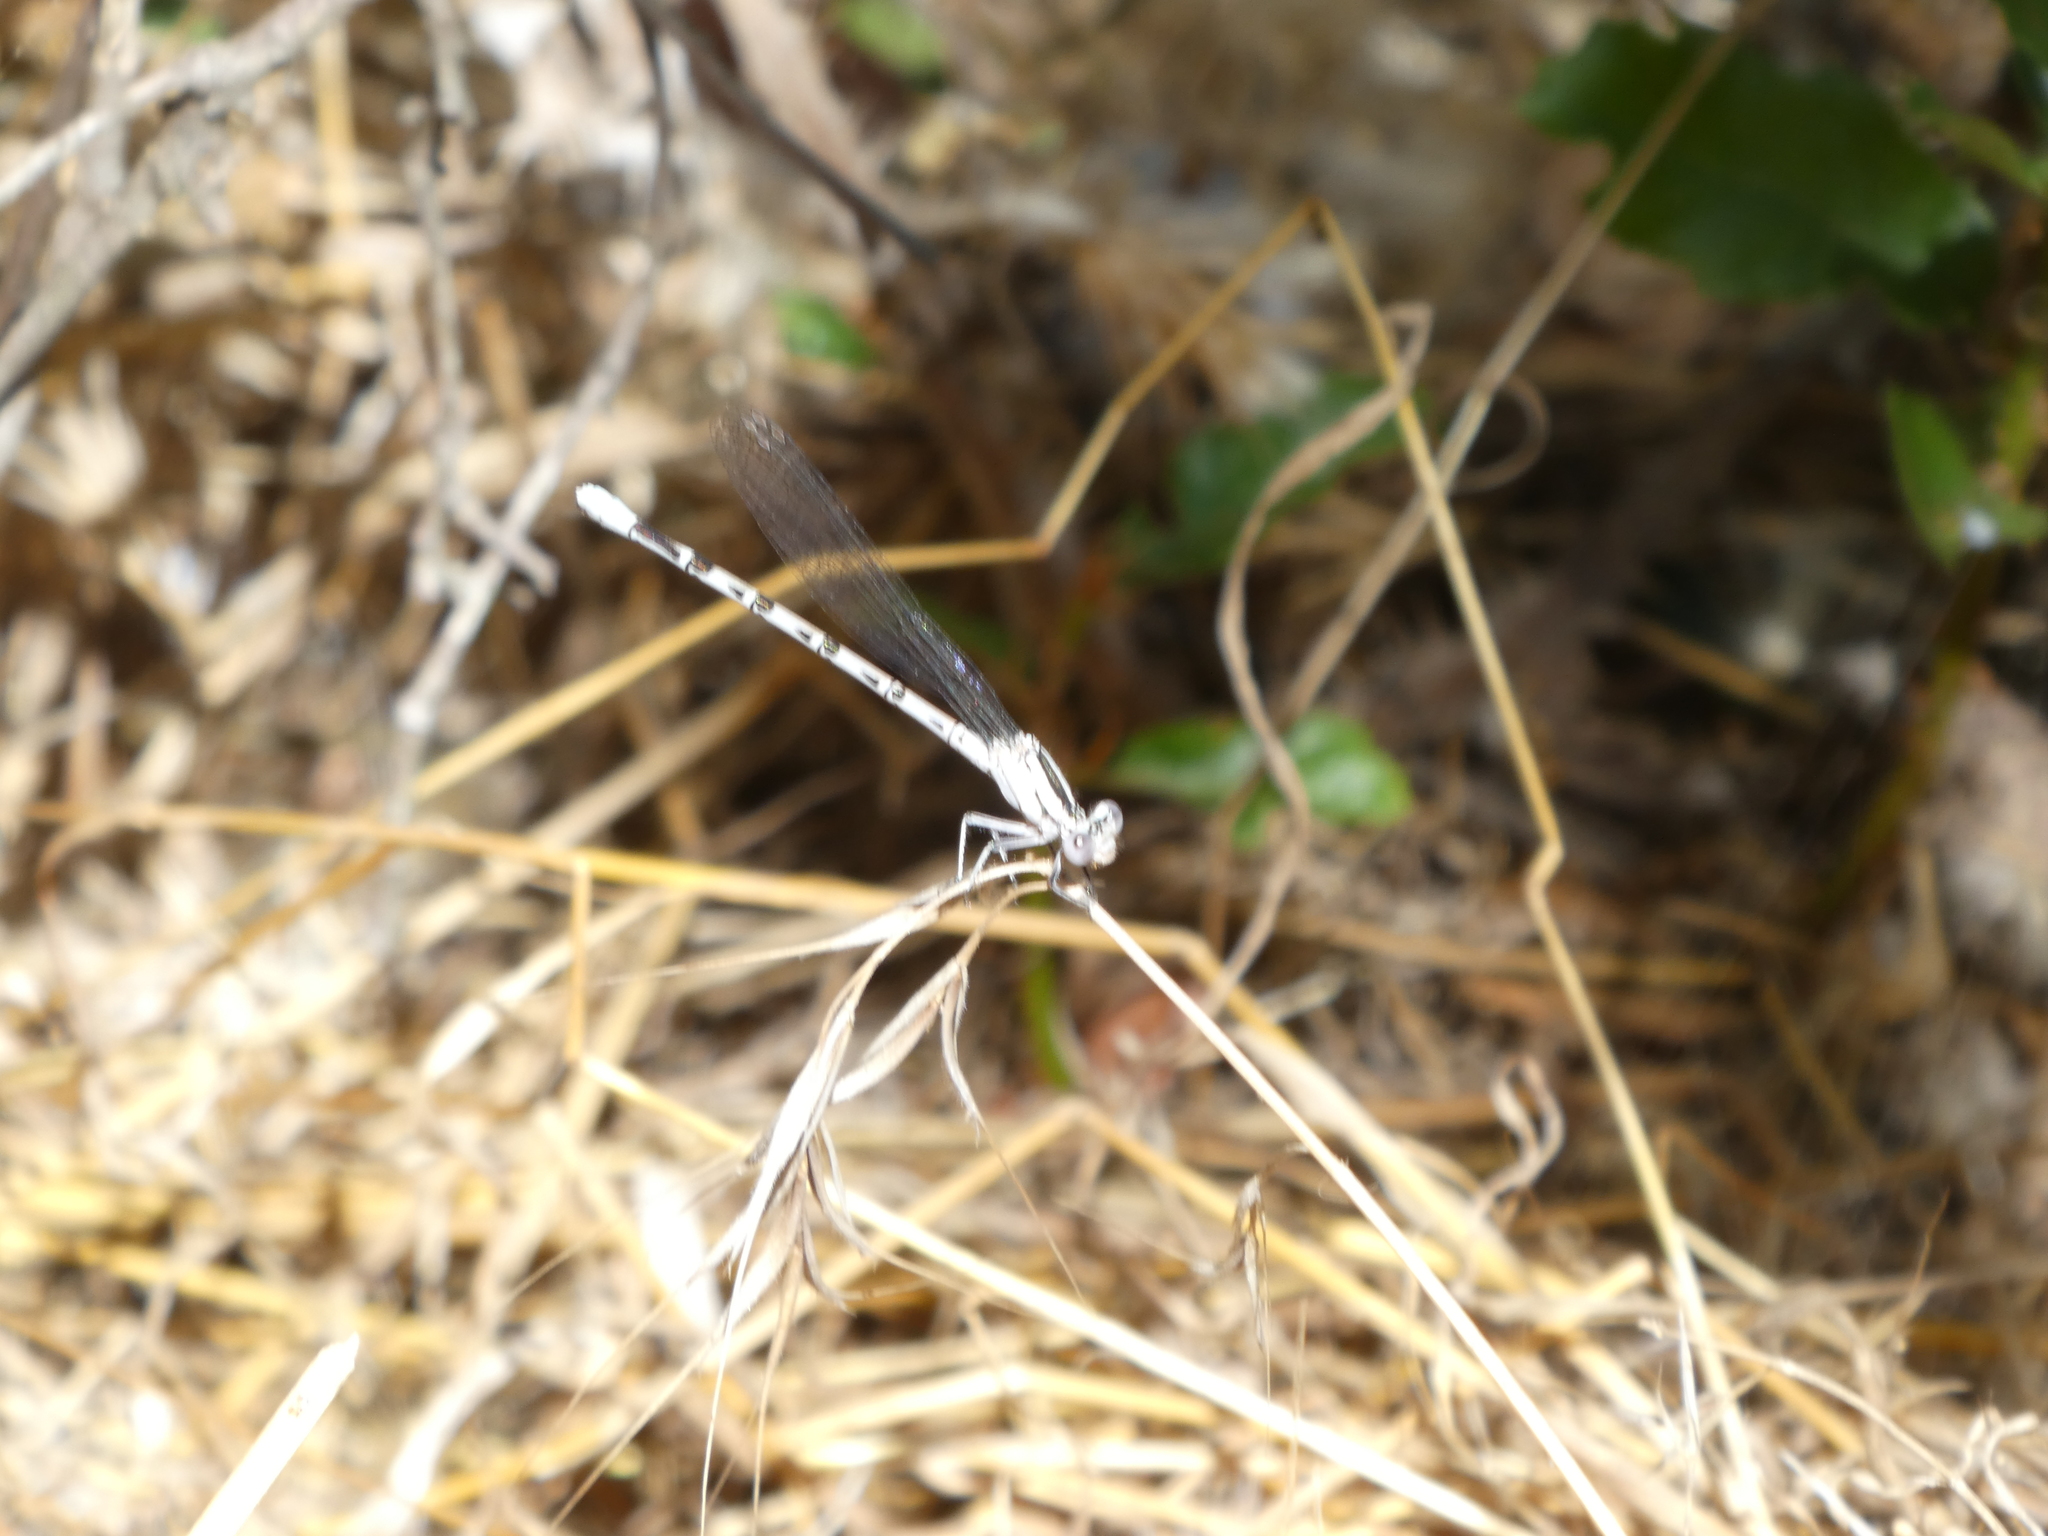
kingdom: Animalia
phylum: Arthropoda
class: Insecta
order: Odonata
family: Coenagrionidae
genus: Argia
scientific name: Argia vivida
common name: Vivid dancer
